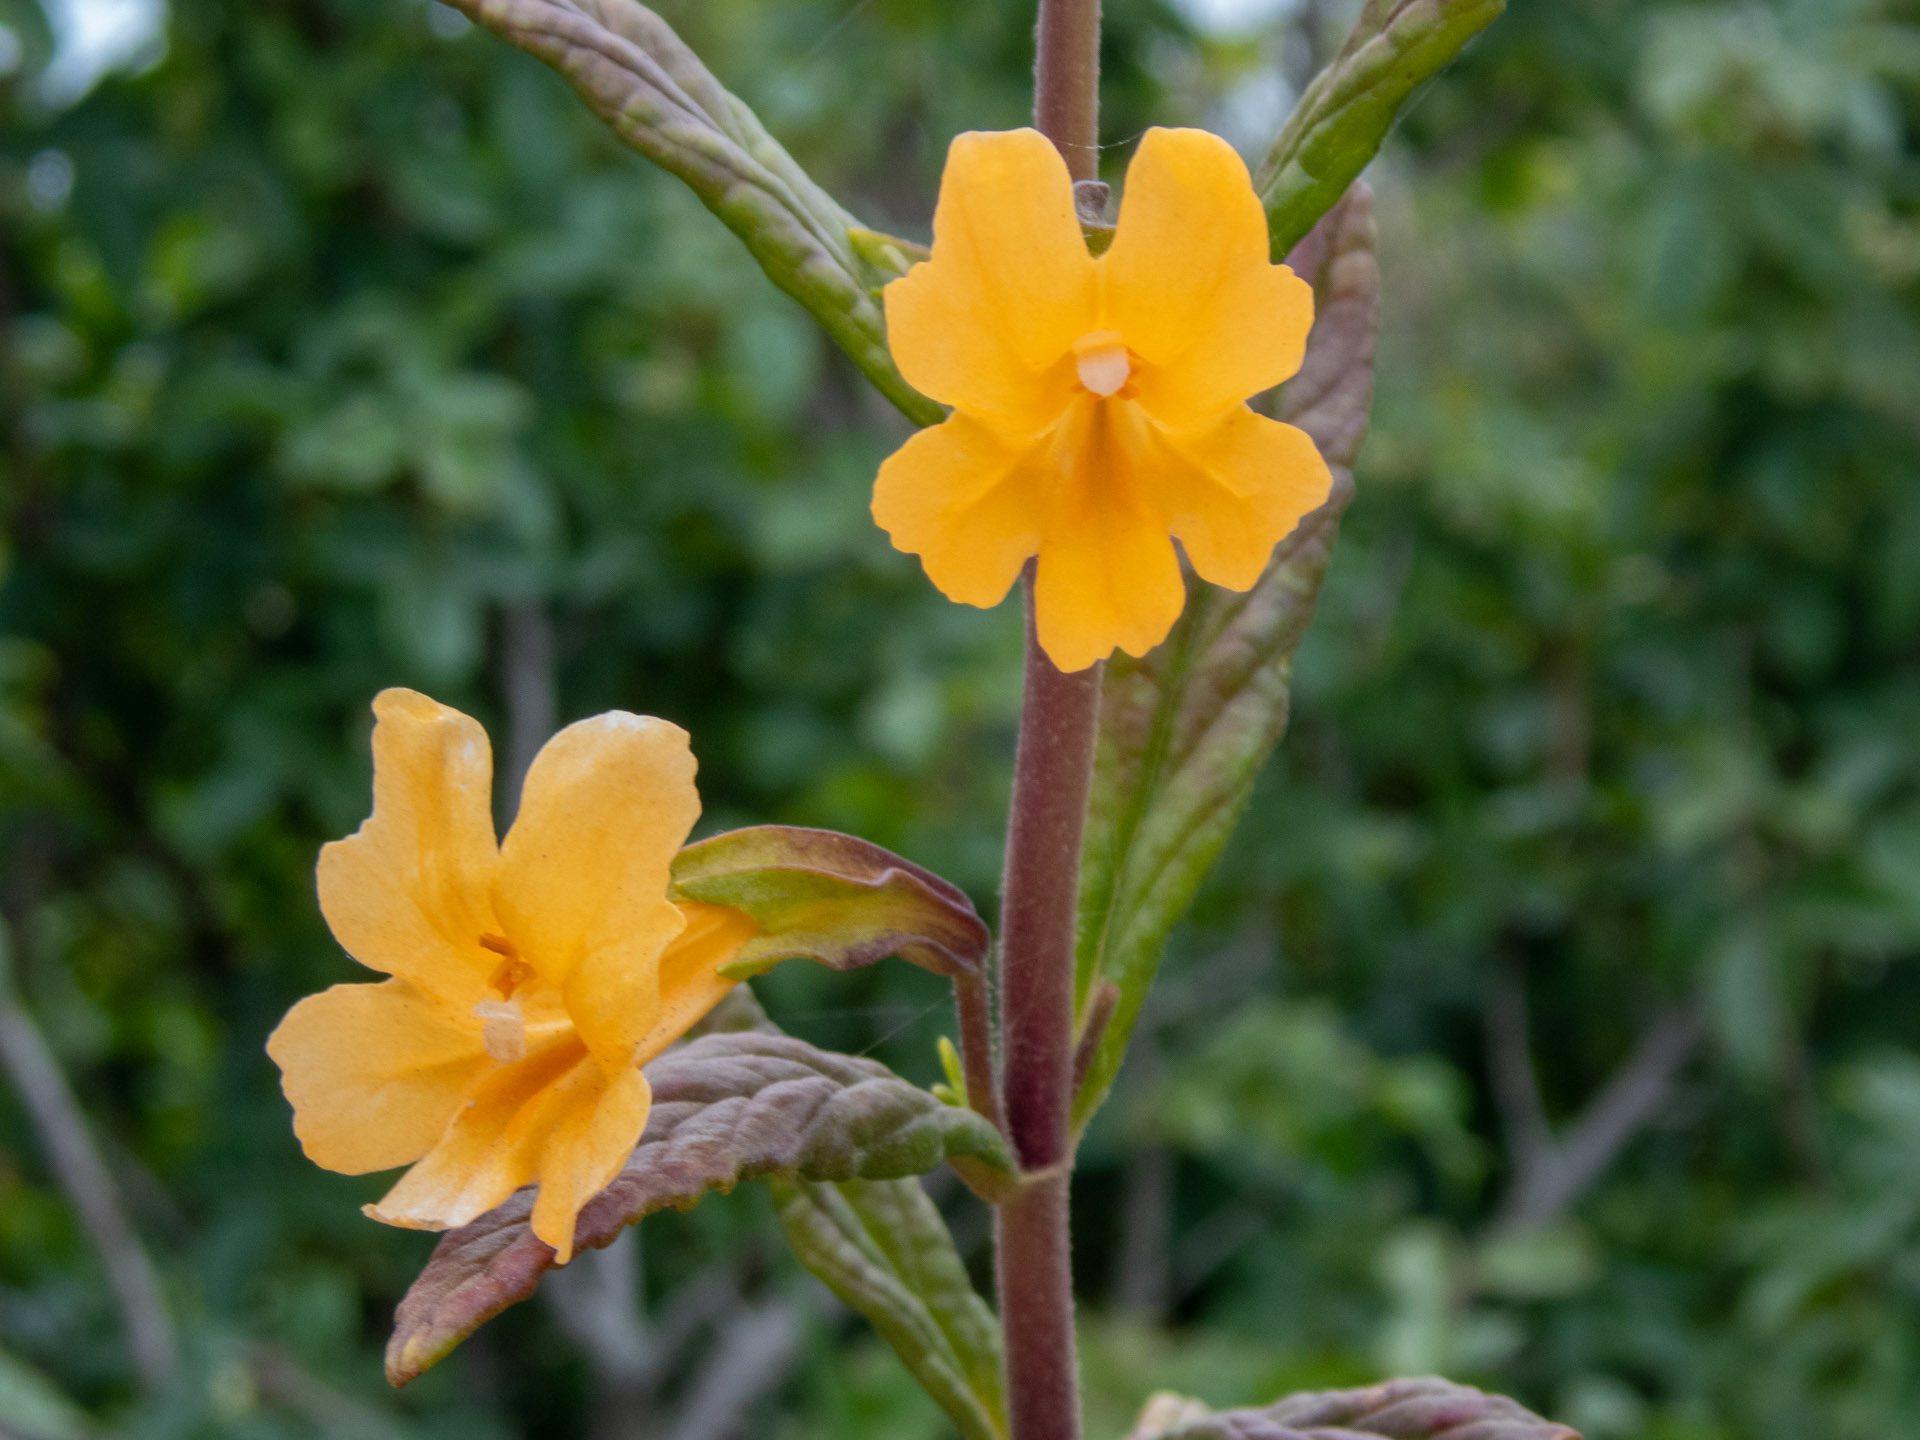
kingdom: Plantae
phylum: Tracheophyta
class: Magnoliopsida
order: Lamiales
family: Phrymaceae
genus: Diplacus
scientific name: Diplacus aurantiacus
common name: Bush monkey-flower
